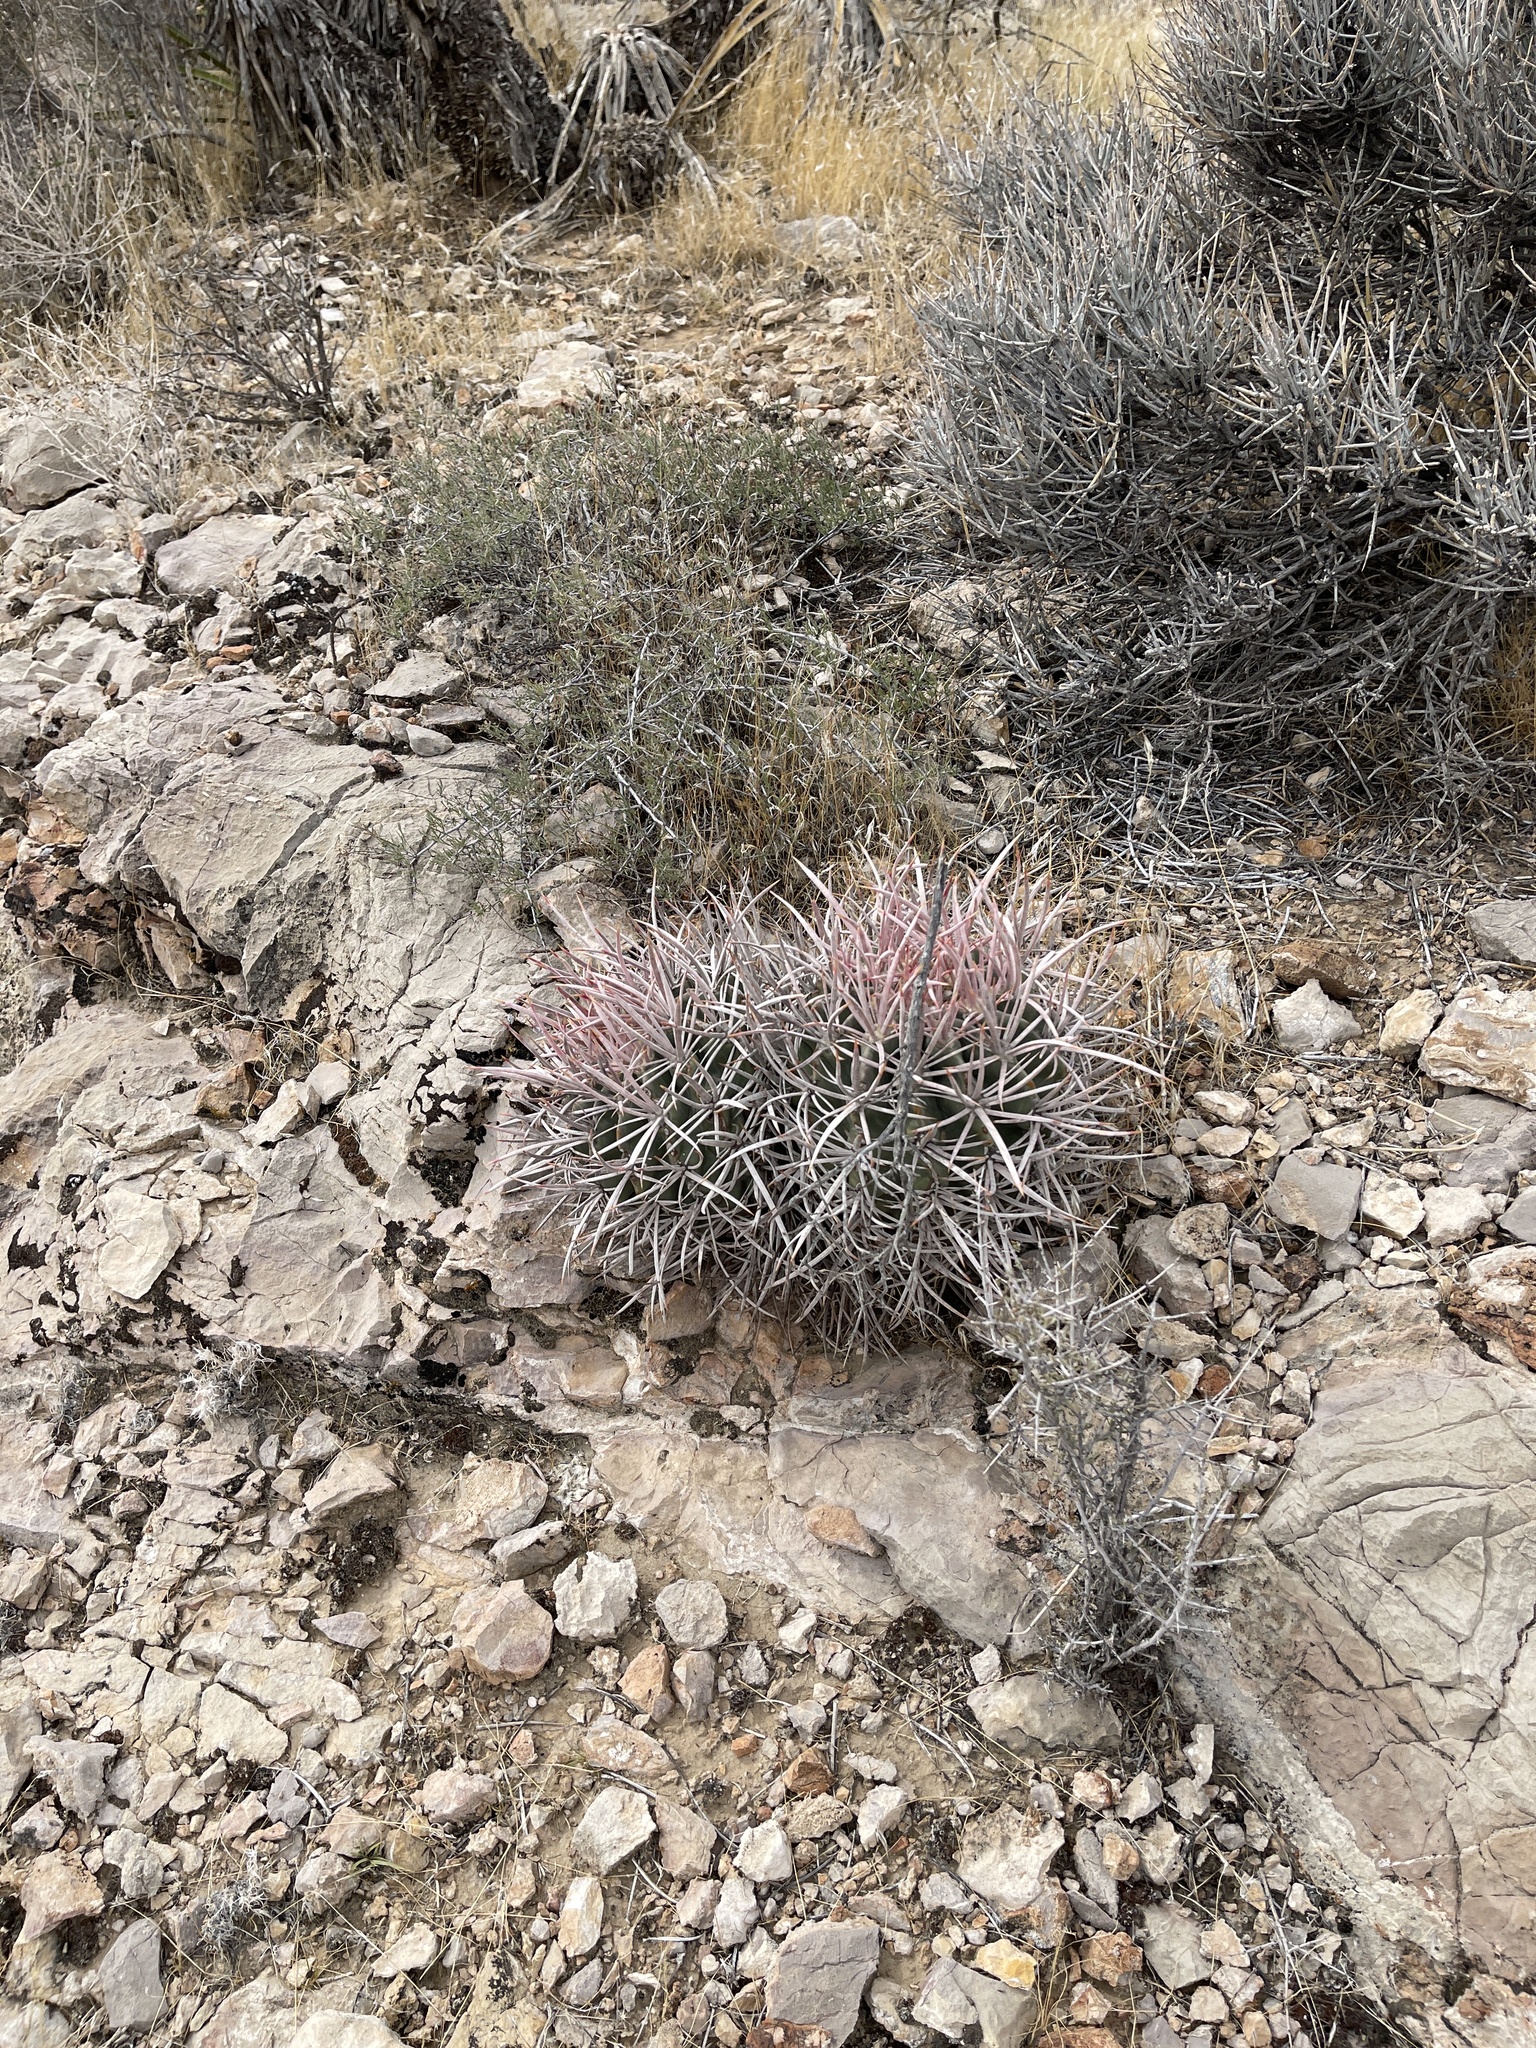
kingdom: Plantae
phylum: Tracheophyta
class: Magnoliopsida
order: Caryophyllales
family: Cactaceae
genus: Echinocactus
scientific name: Echinocactus polycephalus
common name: Cottontop cactus
